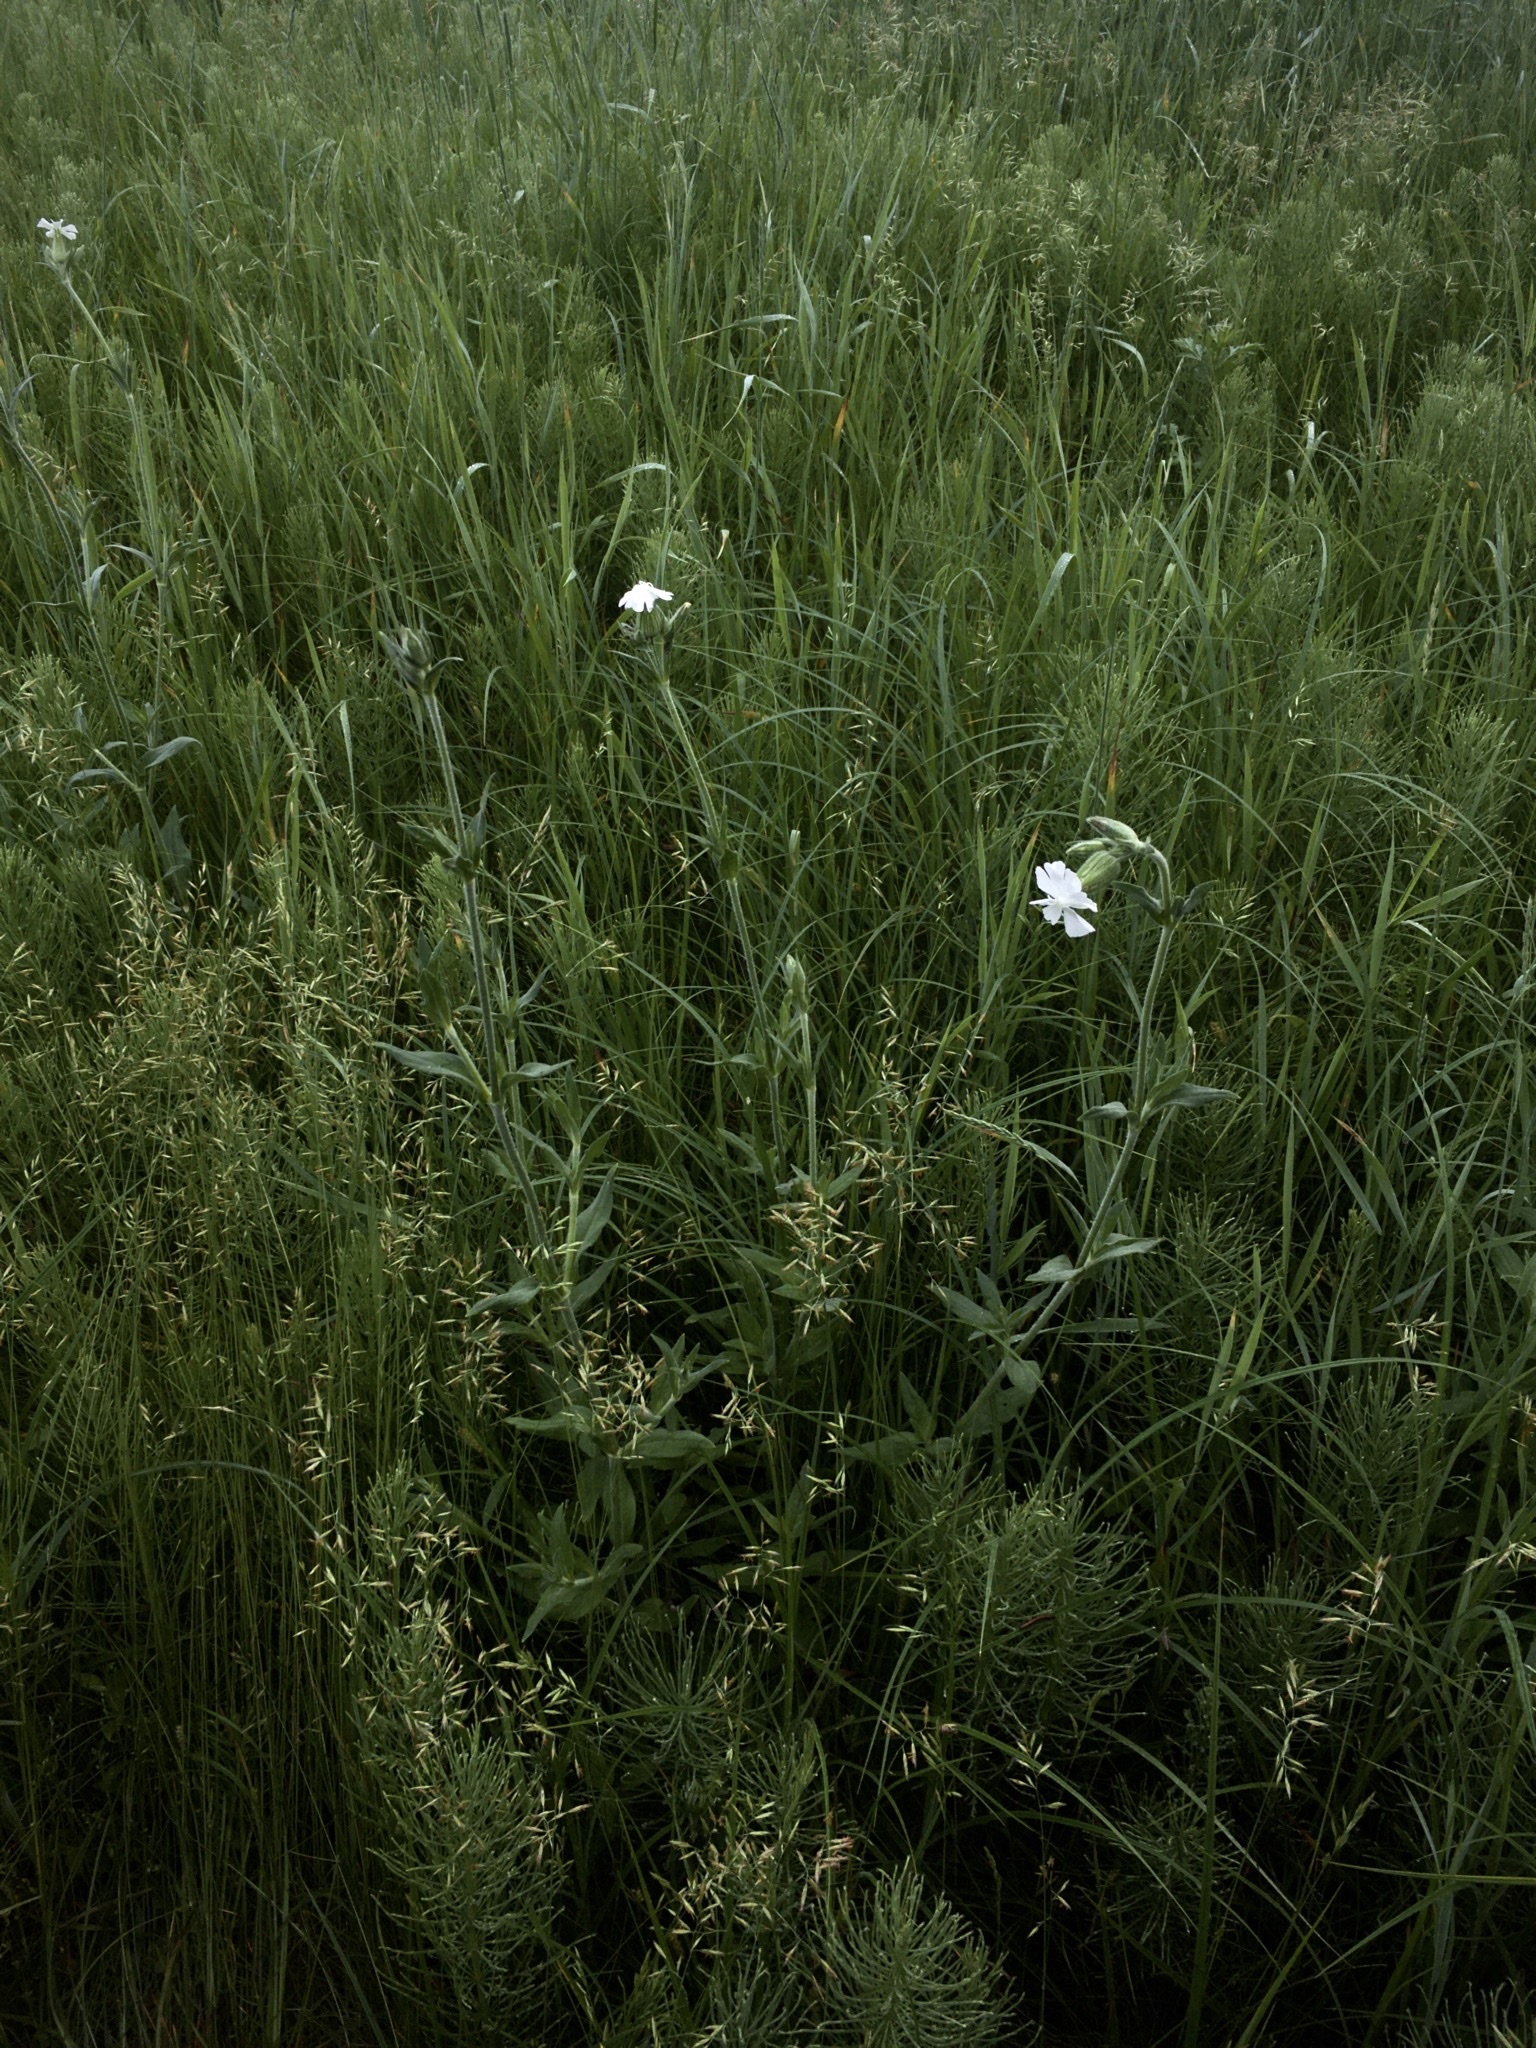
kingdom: Plantae
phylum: Tracheophyta
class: Magnoliopsida
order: Caryophyllales
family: Caryophyllaceae
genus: Silene
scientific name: Silene latifolia
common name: White campion
